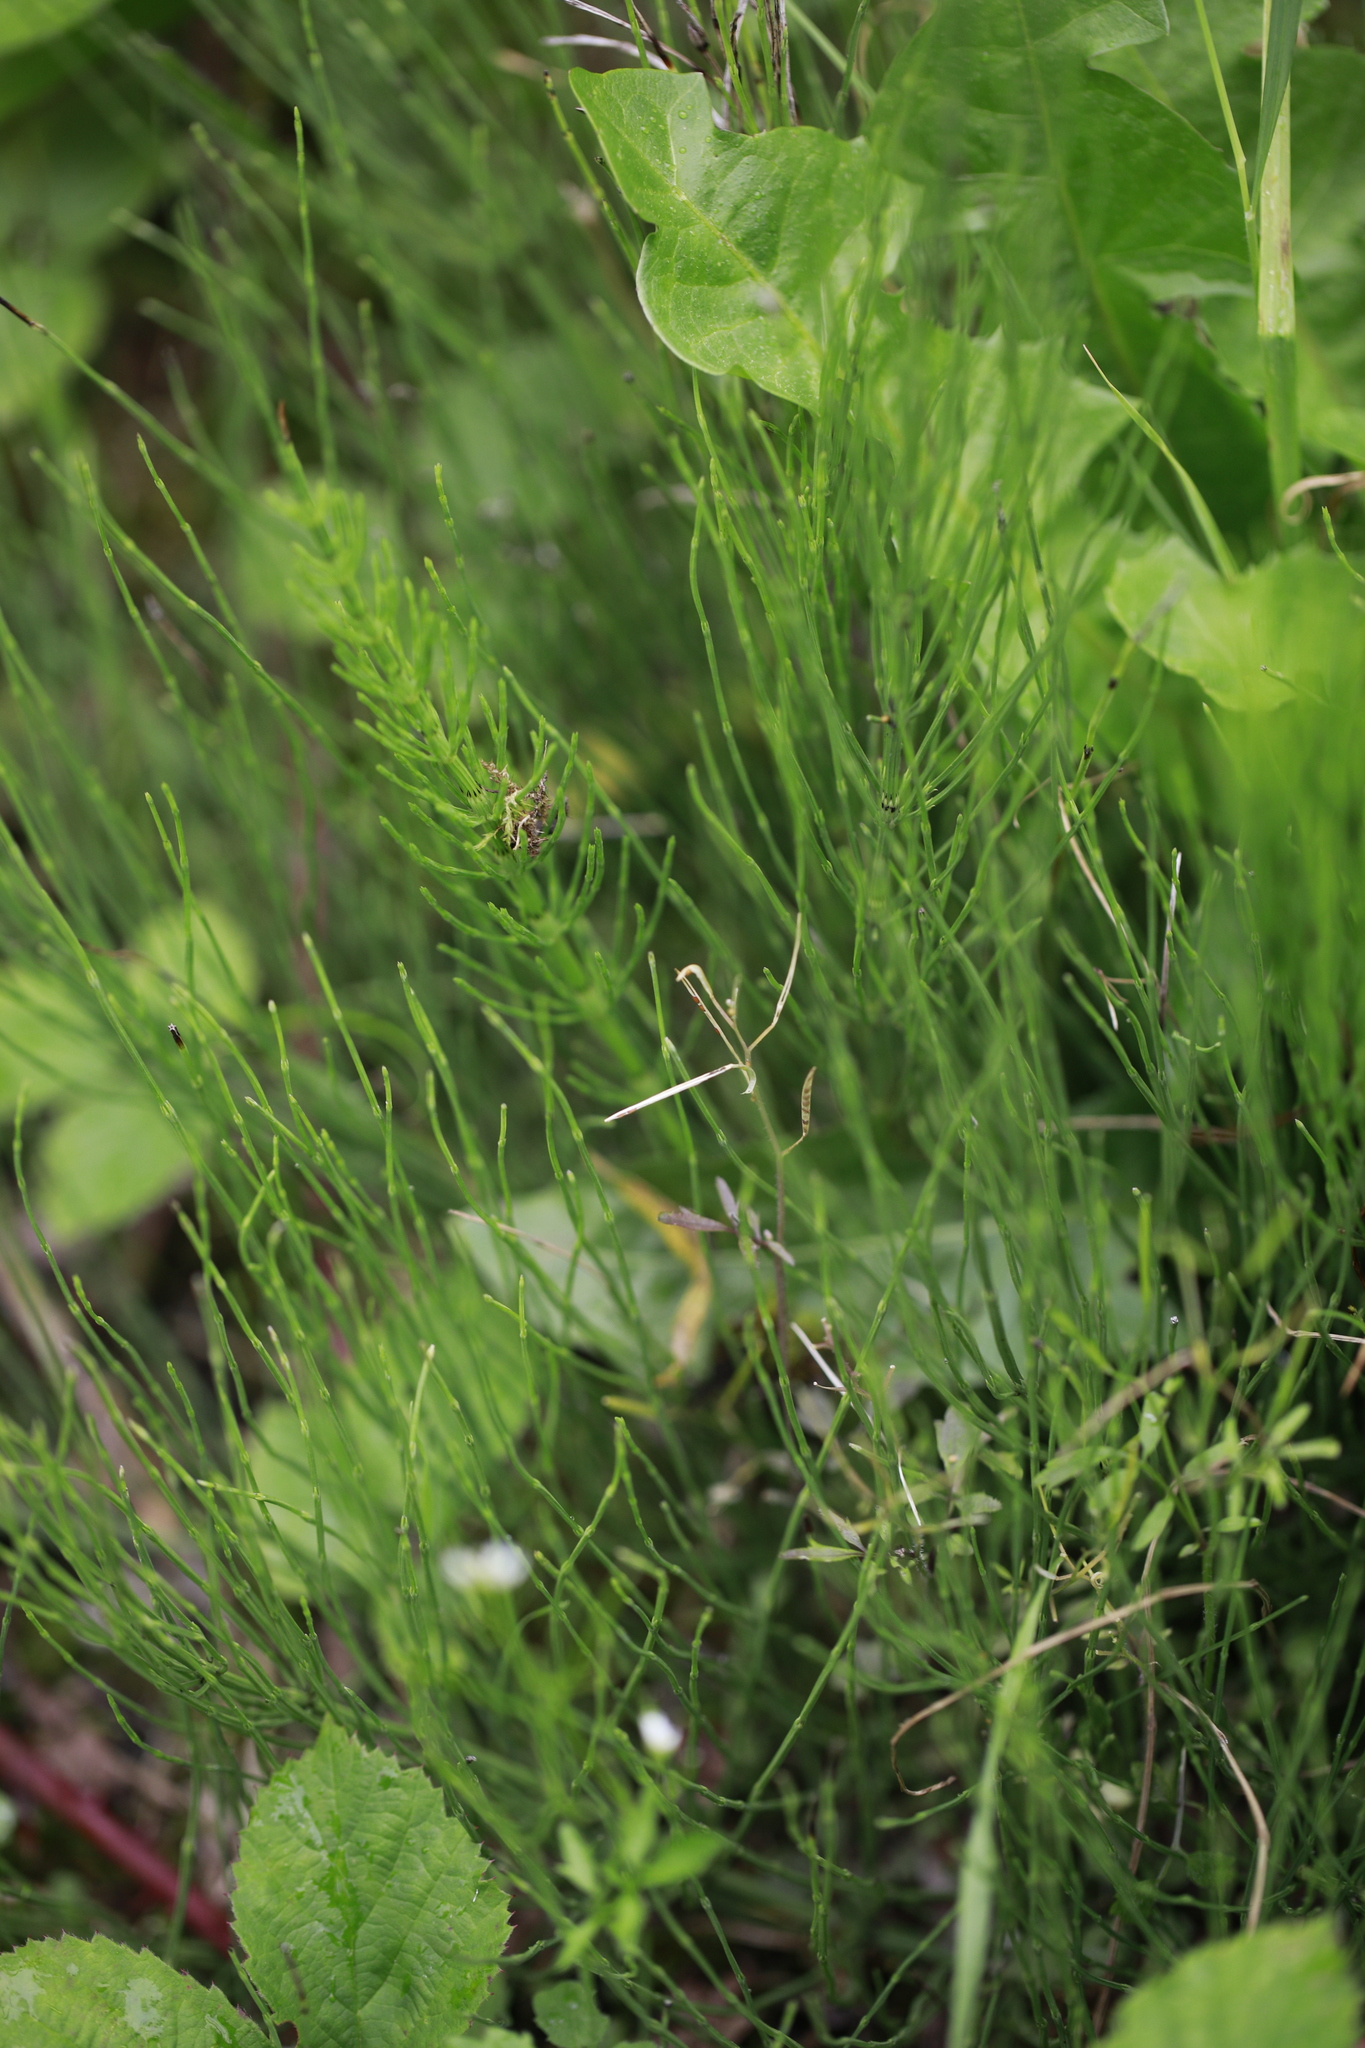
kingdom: Plantae
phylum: Tracheophyta
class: Polypodiopsida
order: Equisetales
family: Equisetaceae
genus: Equisetum
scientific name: Equisetum arvense
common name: Field horsetail
